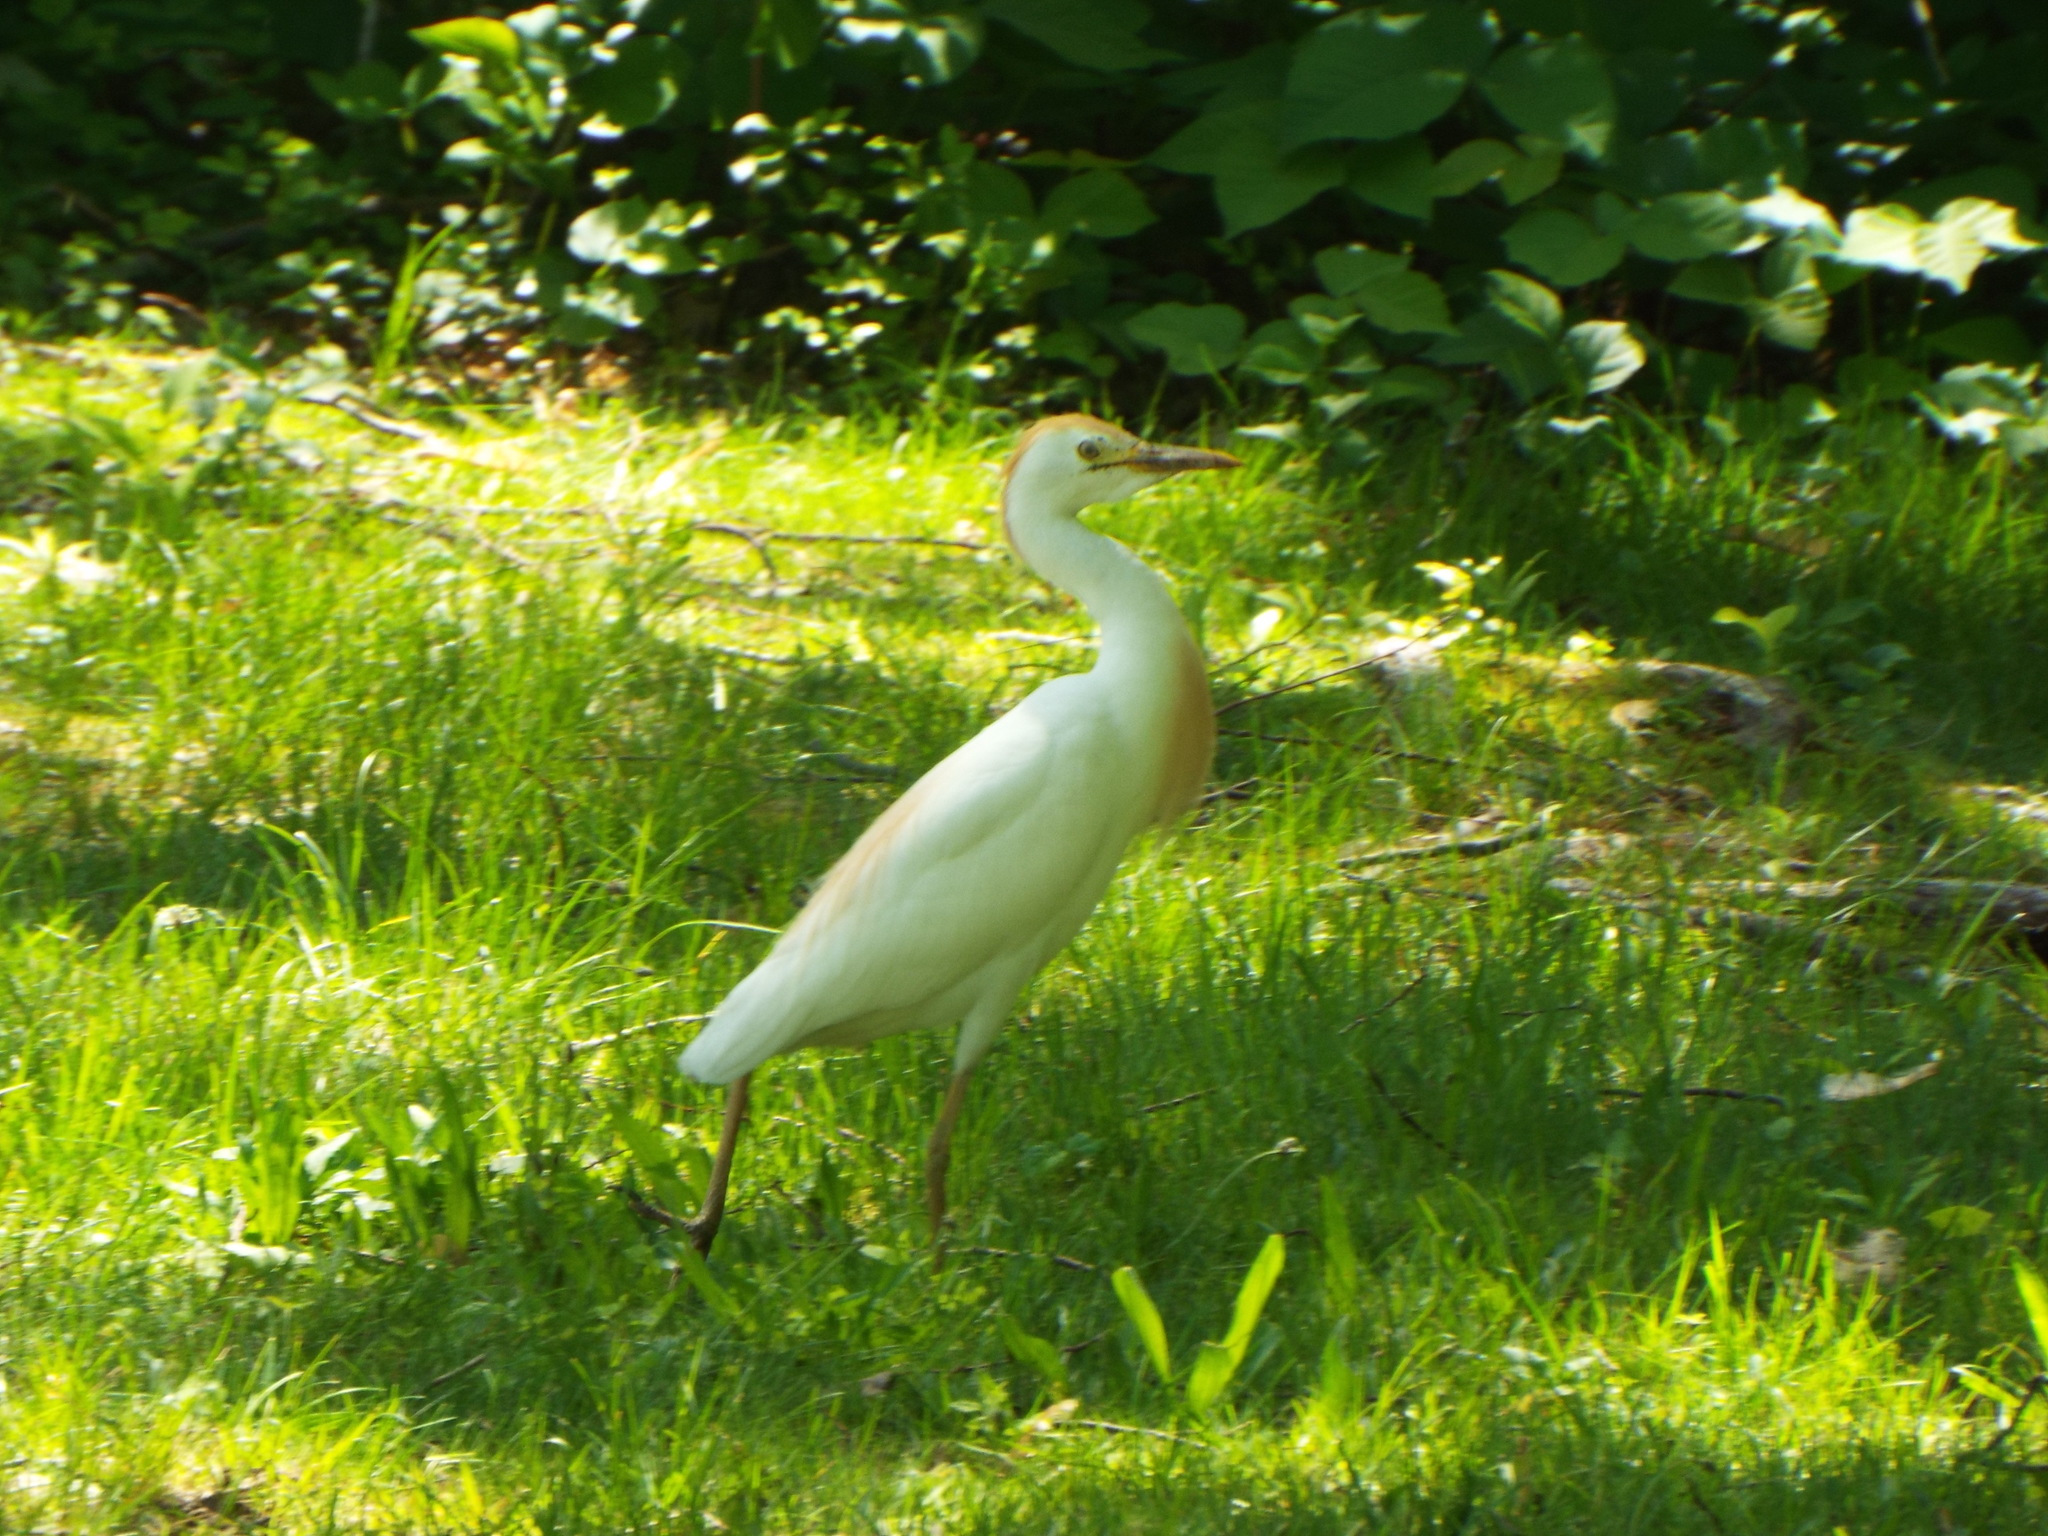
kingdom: Animalia
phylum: Chordata
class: Aves
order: Pelecaniformes
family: Ardeidae
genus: Bubulcus
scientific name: Bubulcus ibis
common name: Cattle egret
